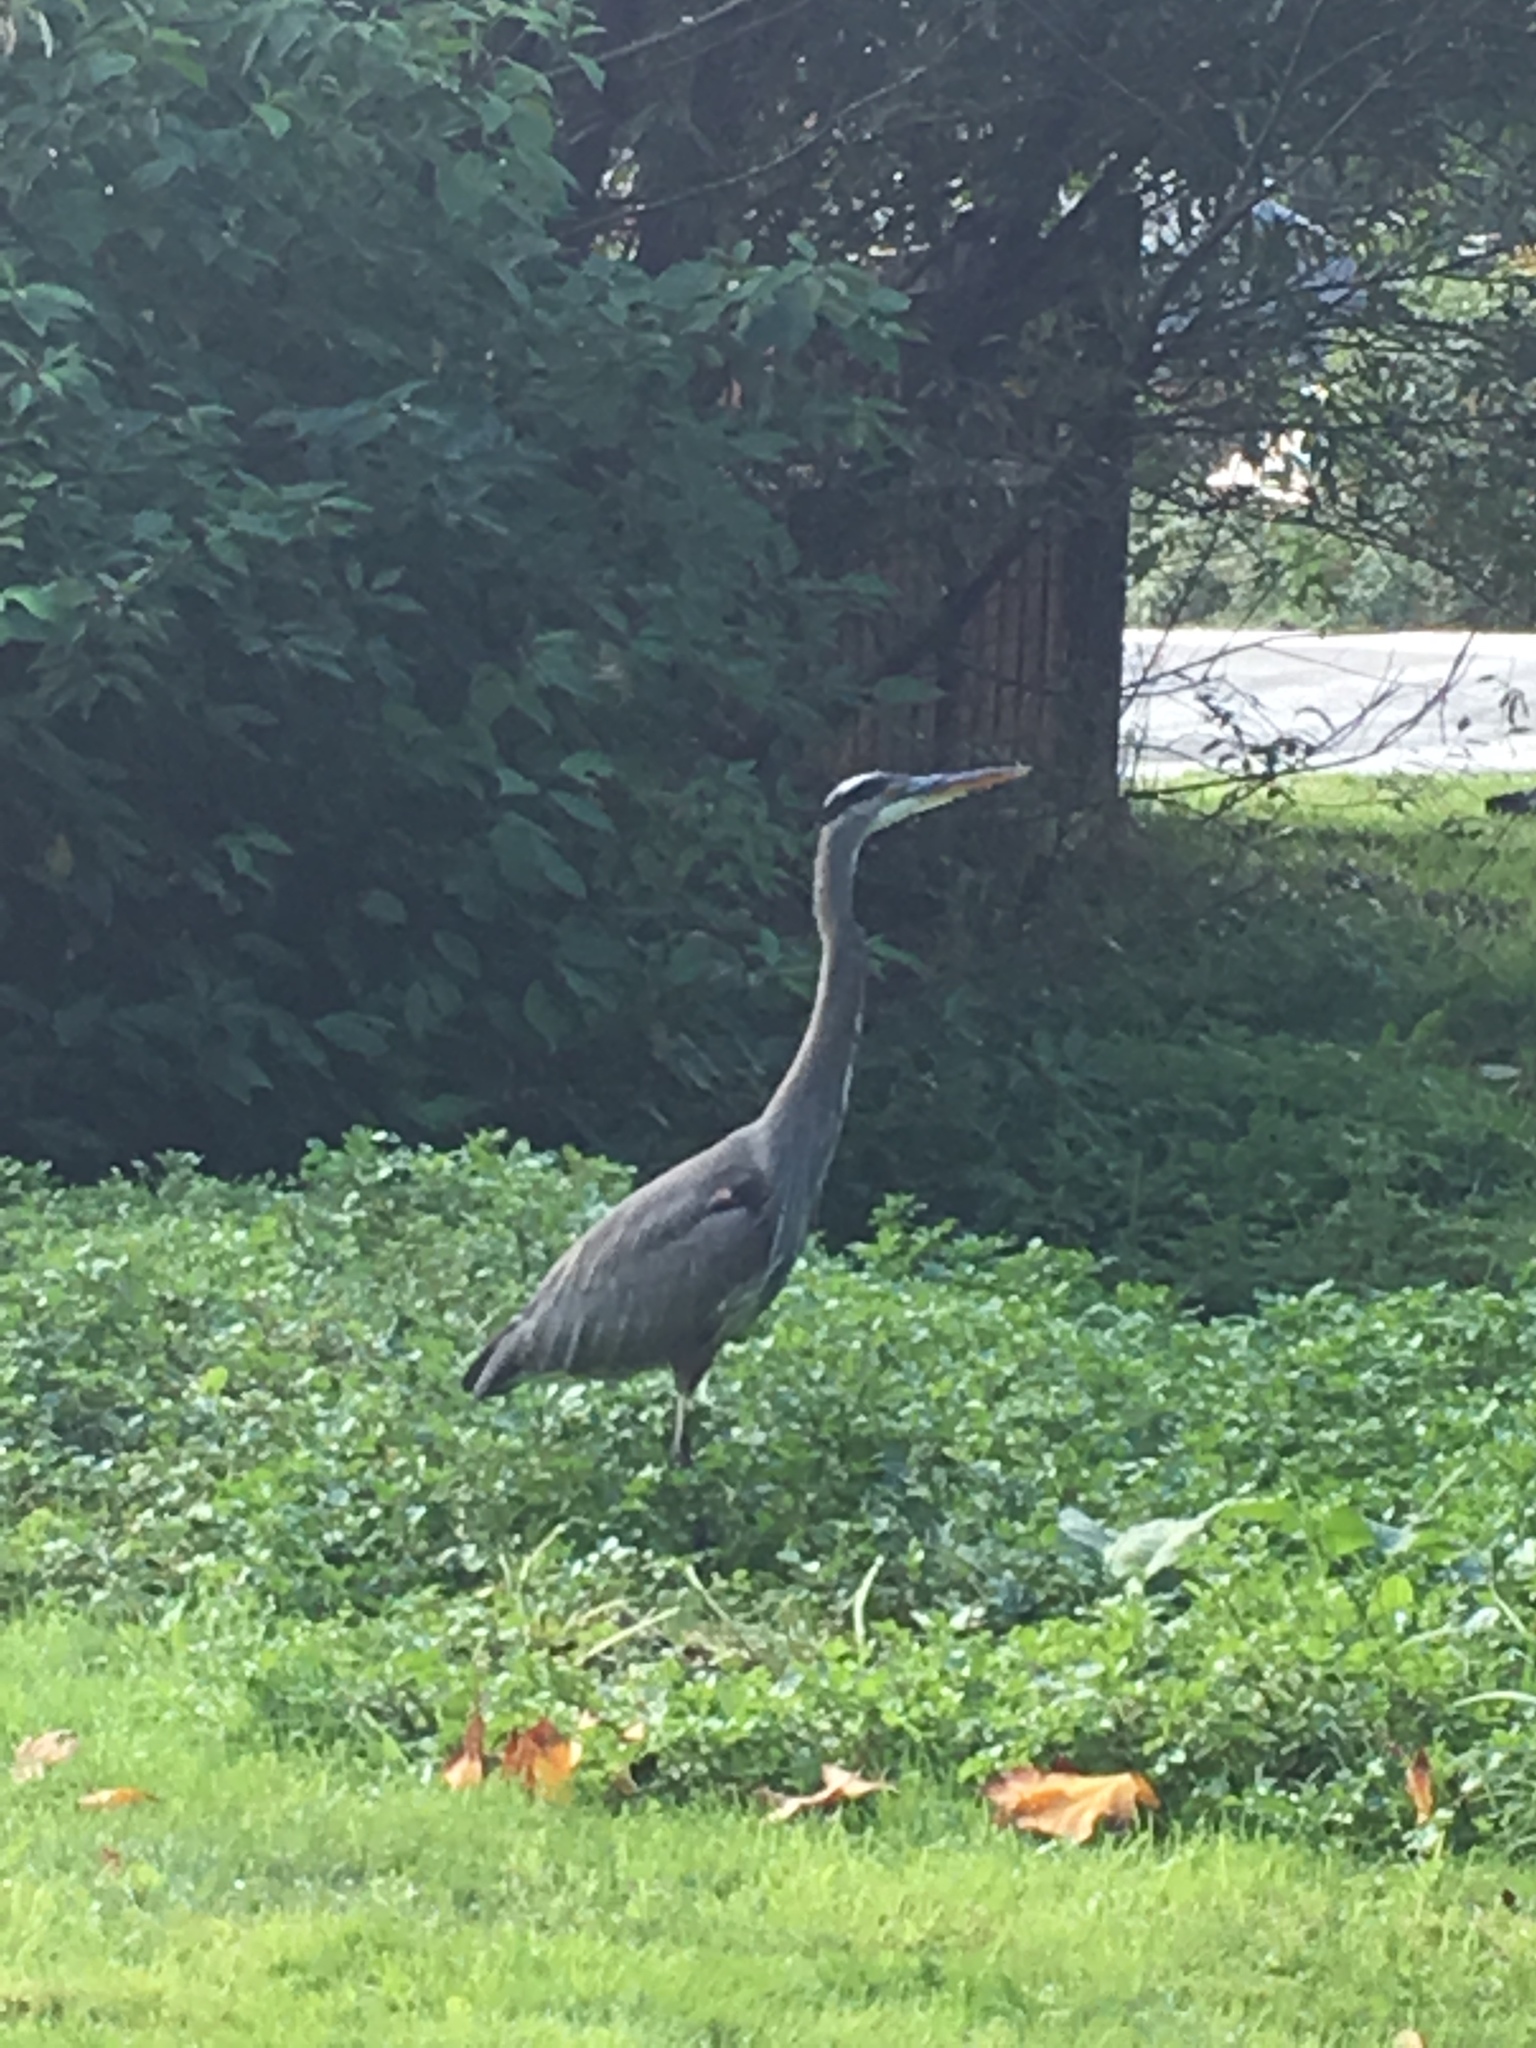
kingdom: Animalia
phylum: Chordata
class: Aves
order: Pelecaniformes
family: Ardeidae
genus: Ardea
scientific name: Ardea herodias
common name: Great blue heron
